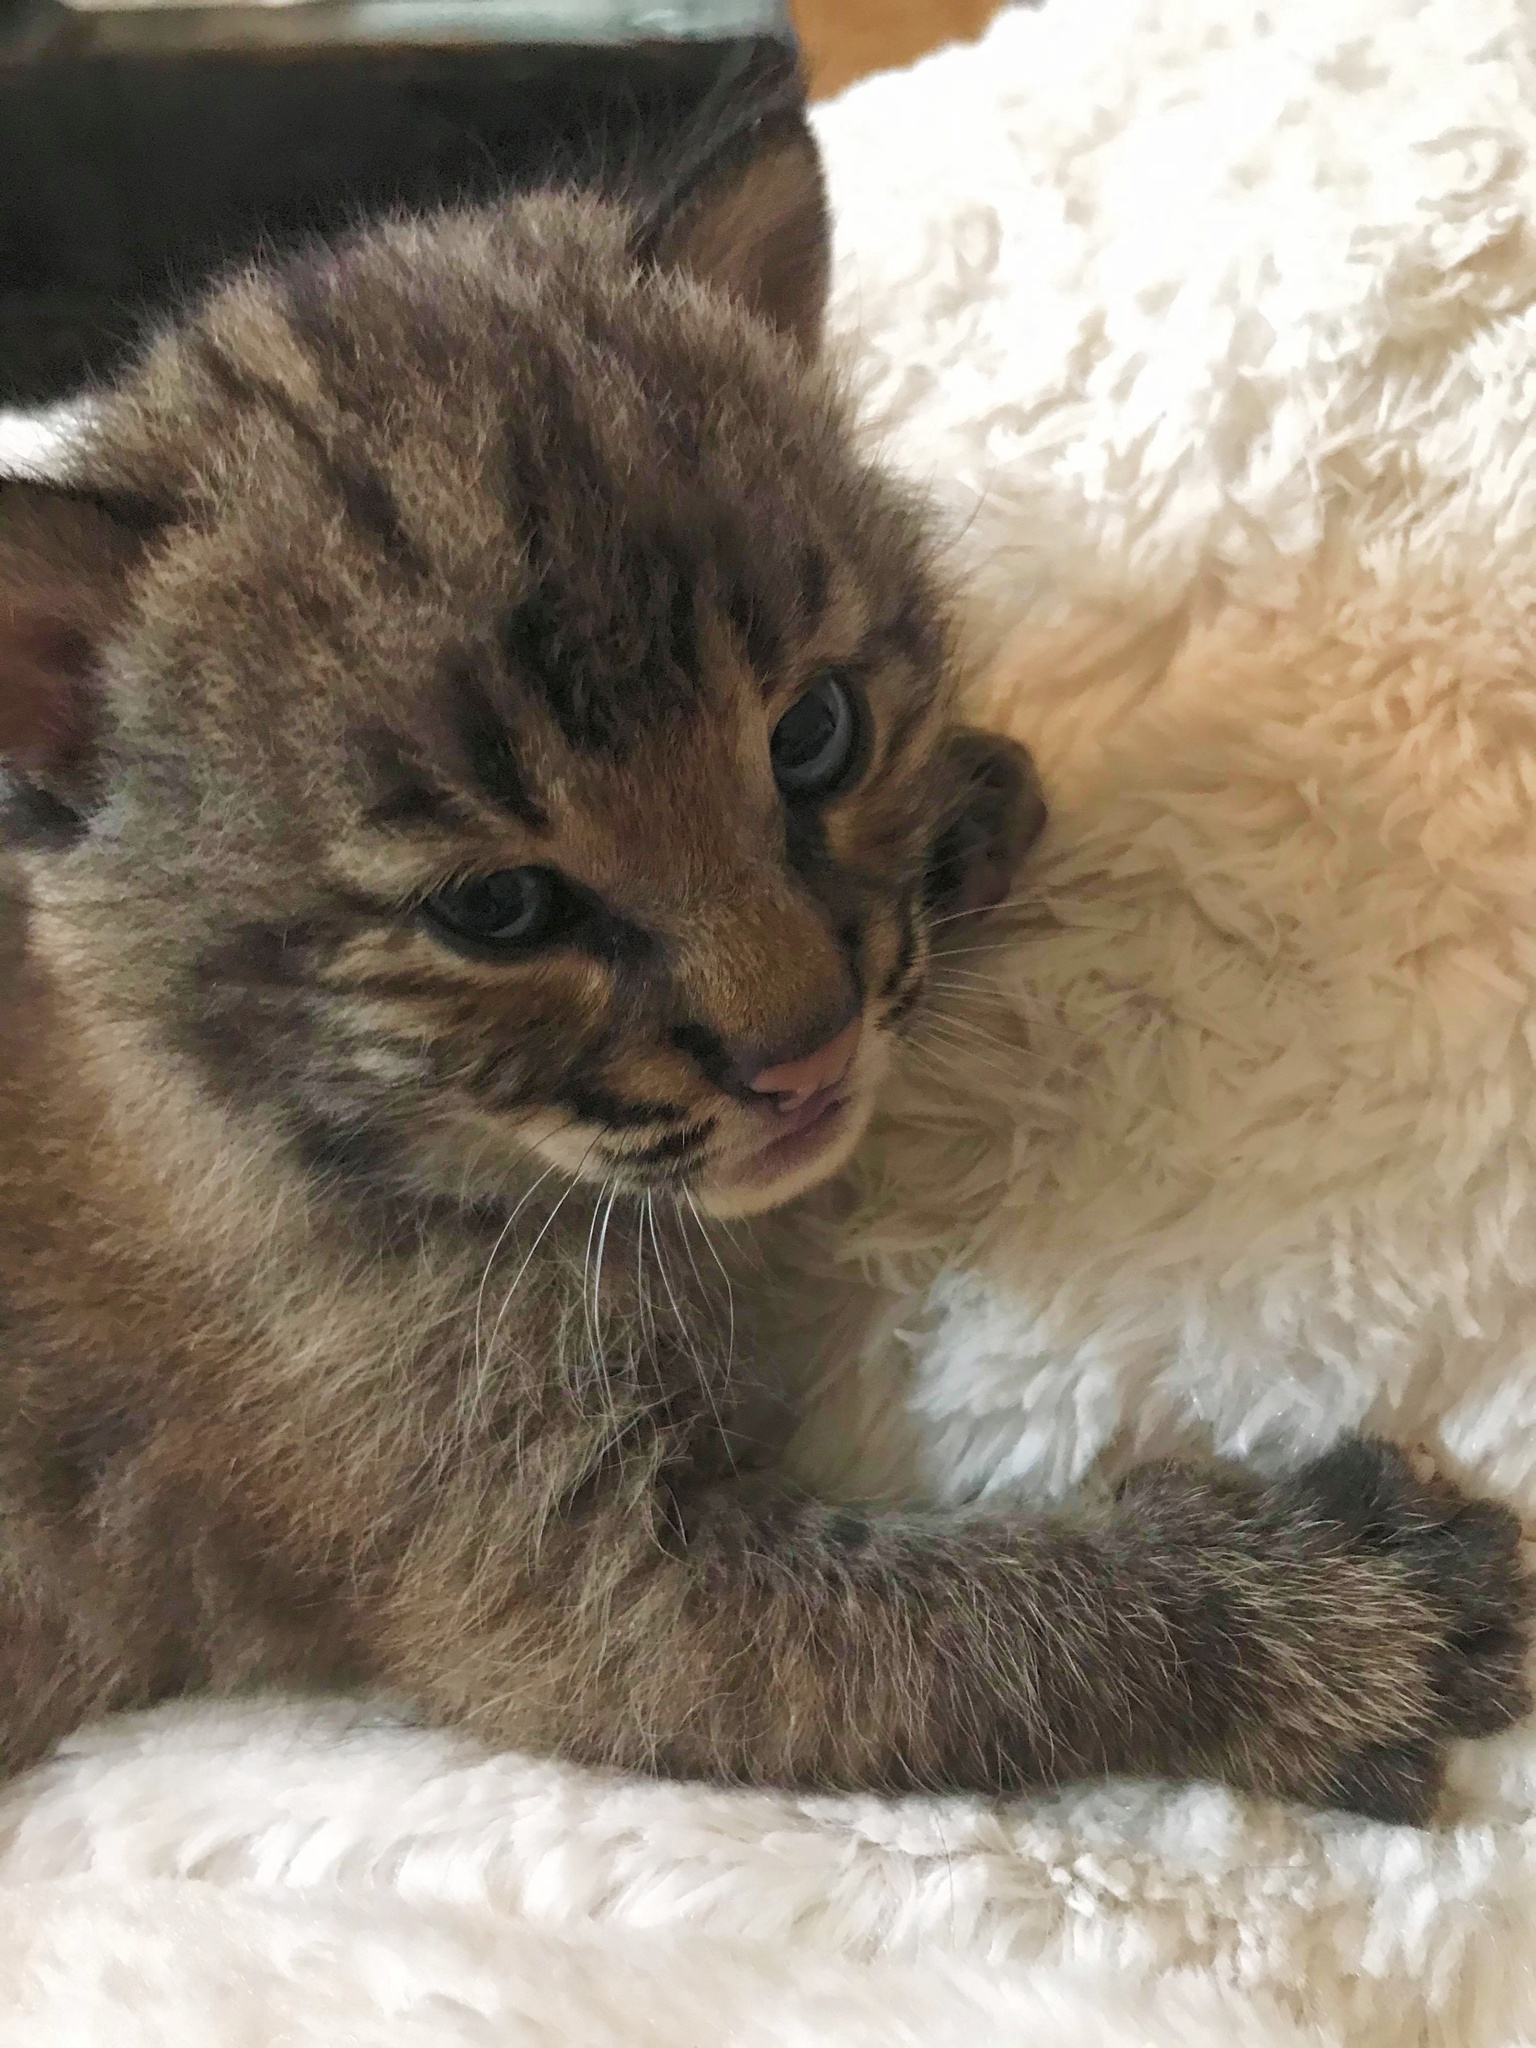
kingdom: Animalia
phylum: Chordata
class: Mammalia
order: Carnivora
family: Felidae
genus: Lynx
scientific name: Lynx rufus
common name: Bobcat
